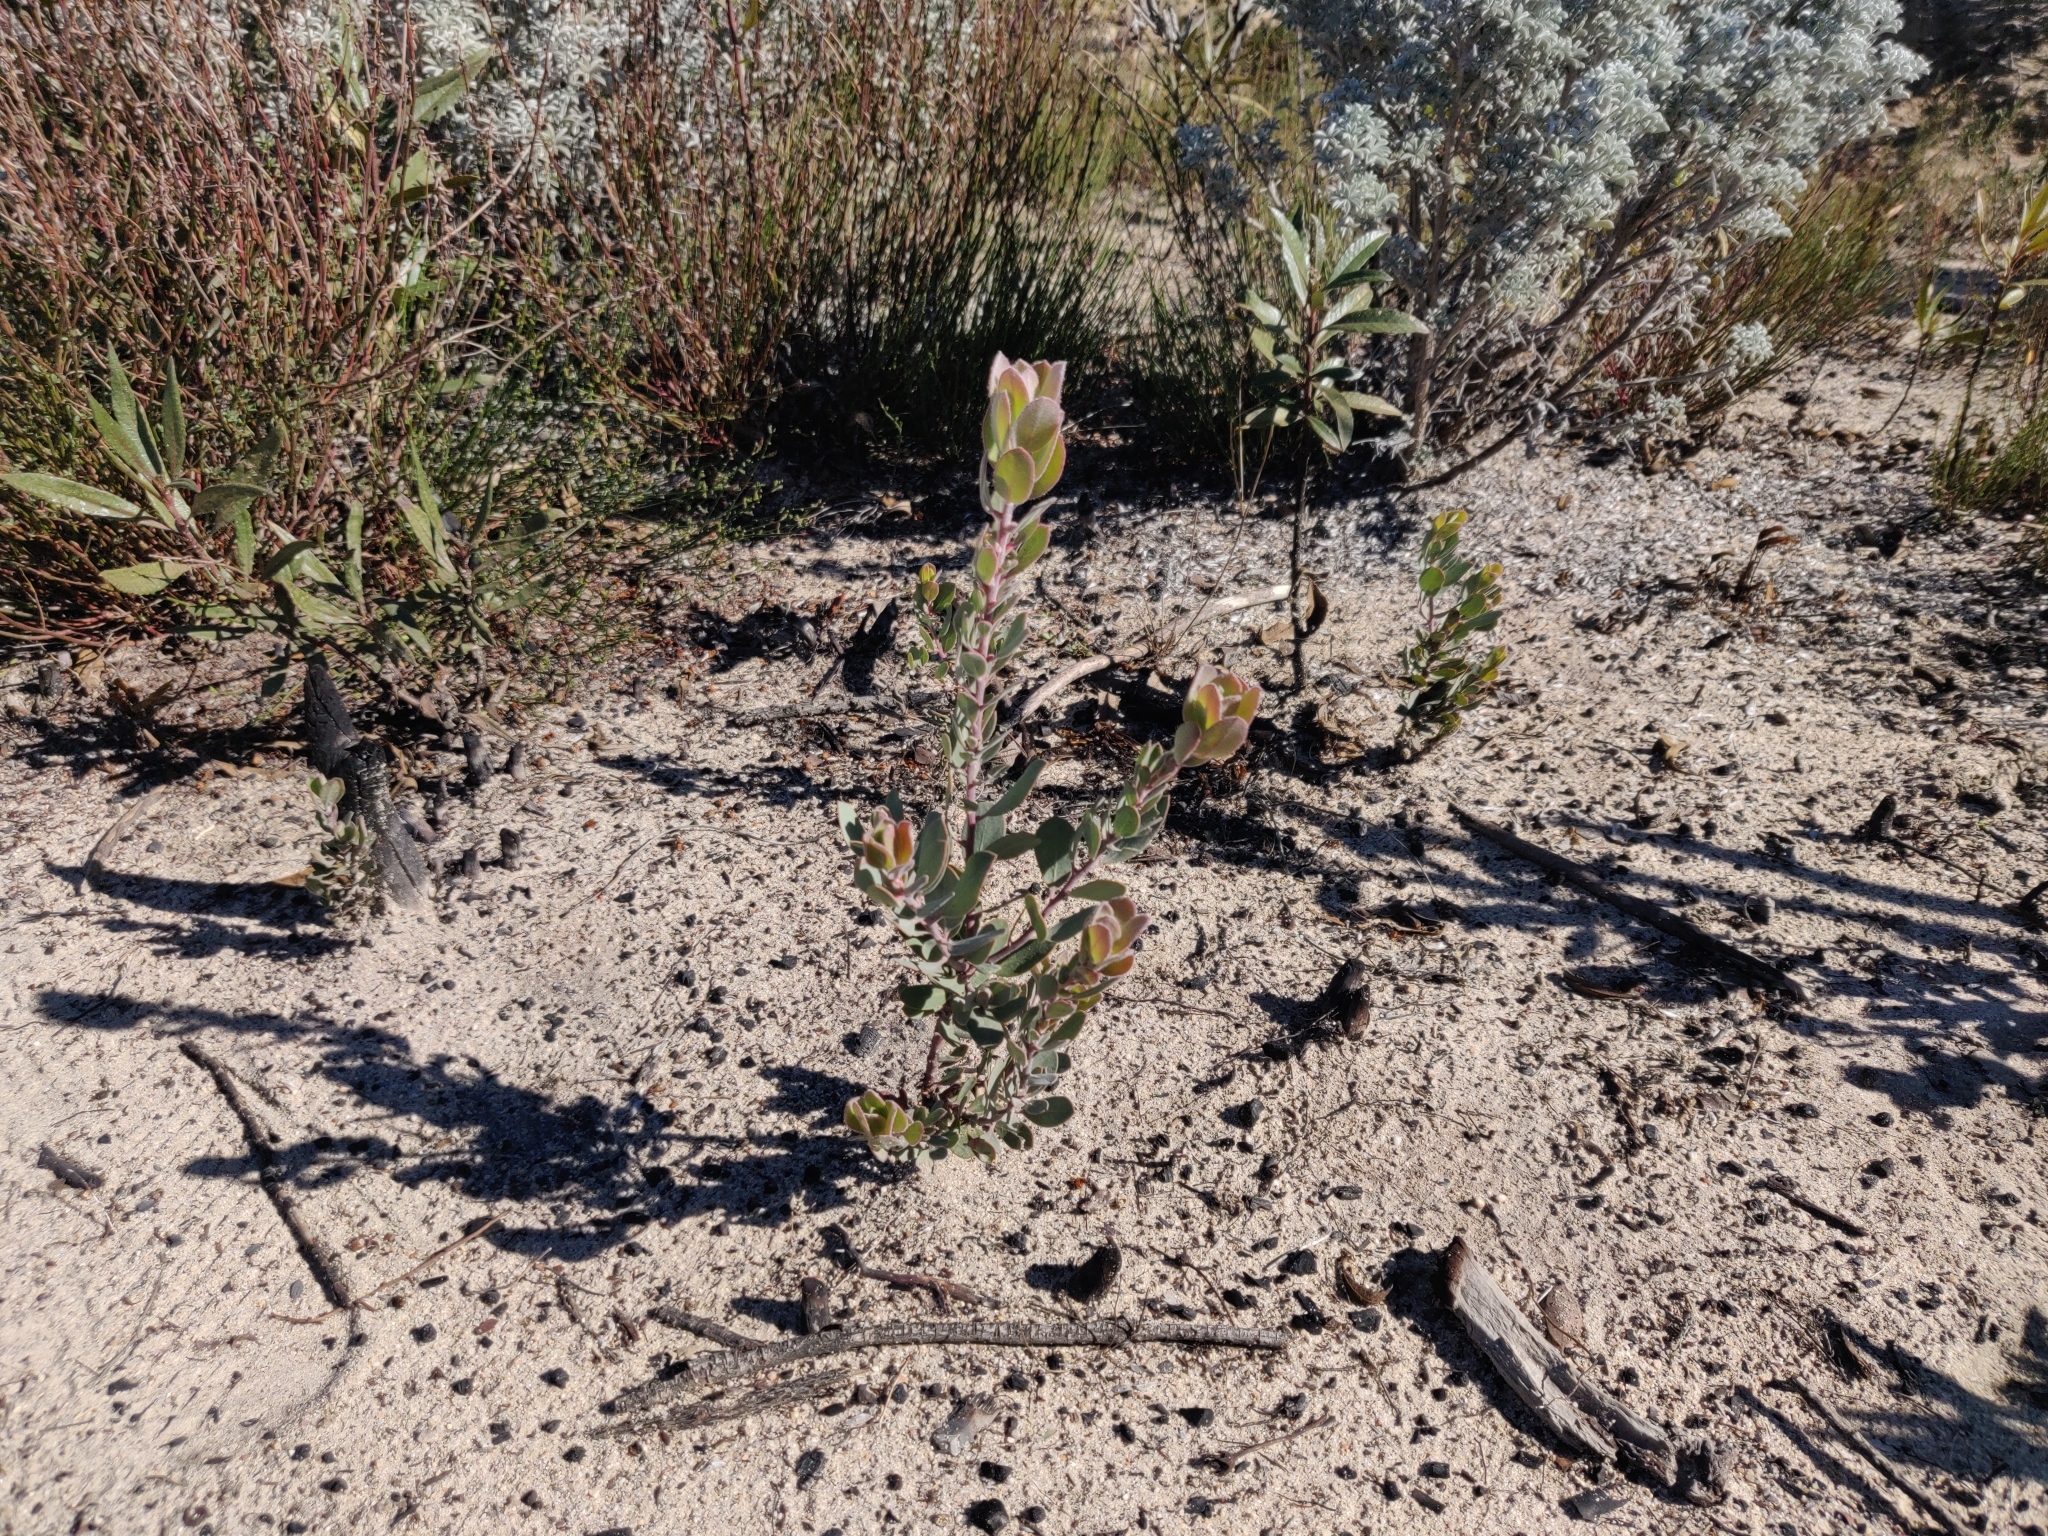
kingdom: Plantae
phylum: Tracheophyta
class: Magnoliopsida
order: Ericales
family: Ericaceae
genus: Arctostaphylos
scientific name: Arctostaphylos silvicola
